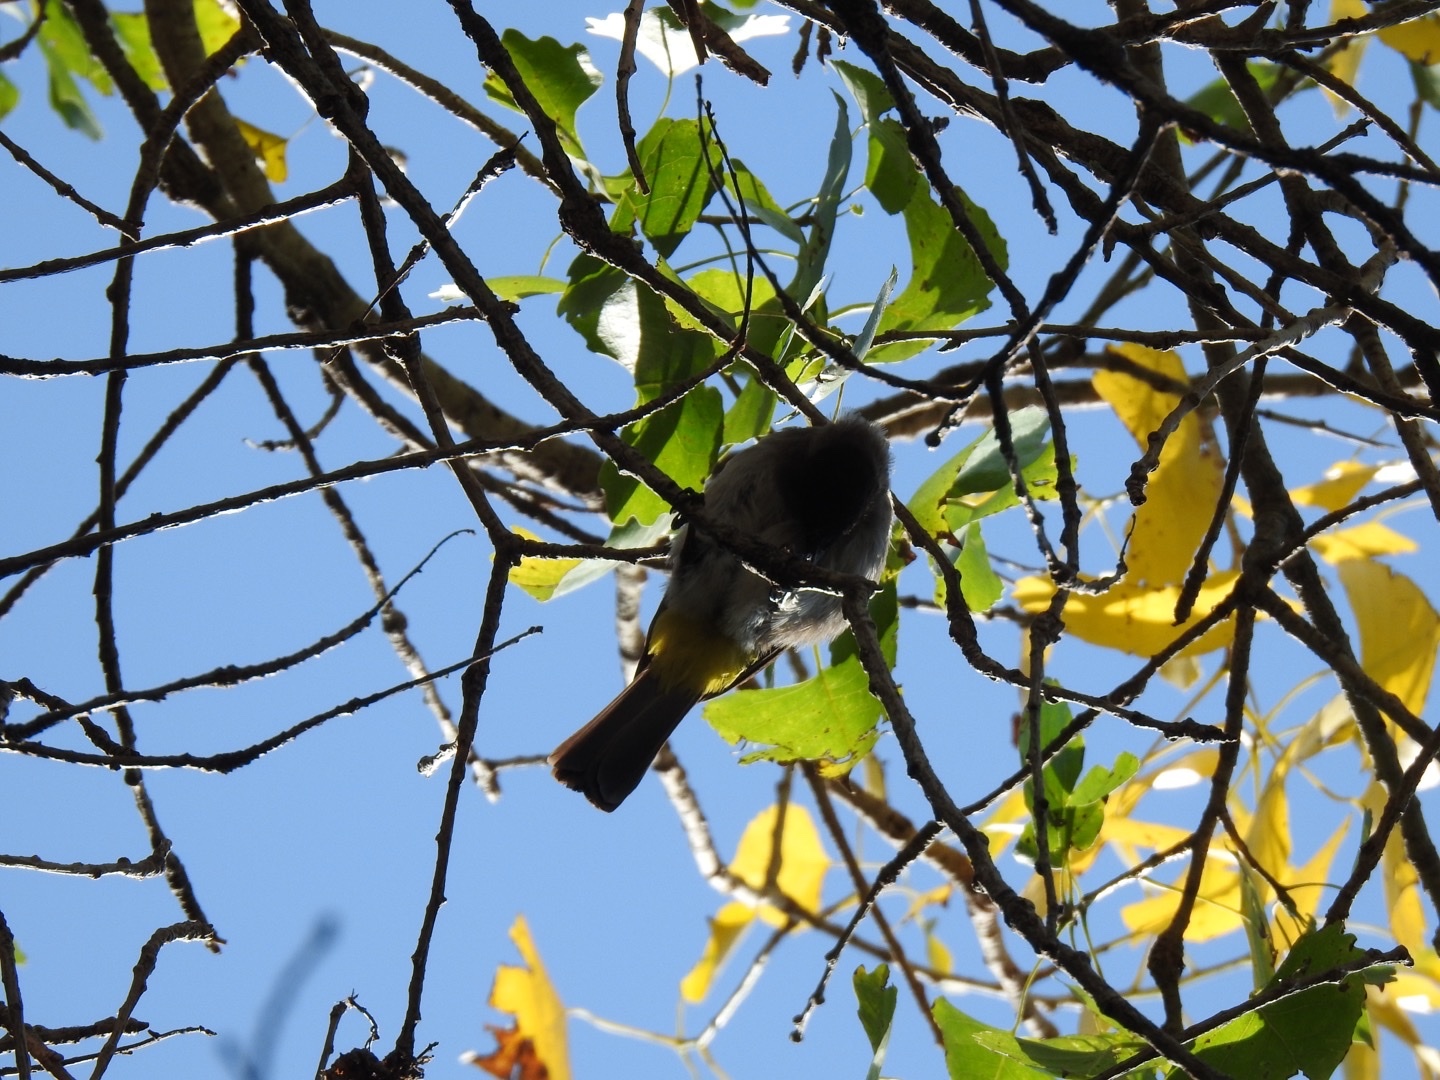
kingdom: Animalia
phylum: Chordata
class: Aves
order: Passeriformes
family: Pycnonotidae
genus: Pycnonotus
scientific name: Pycnonotus barbatus
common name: Common bulbul
